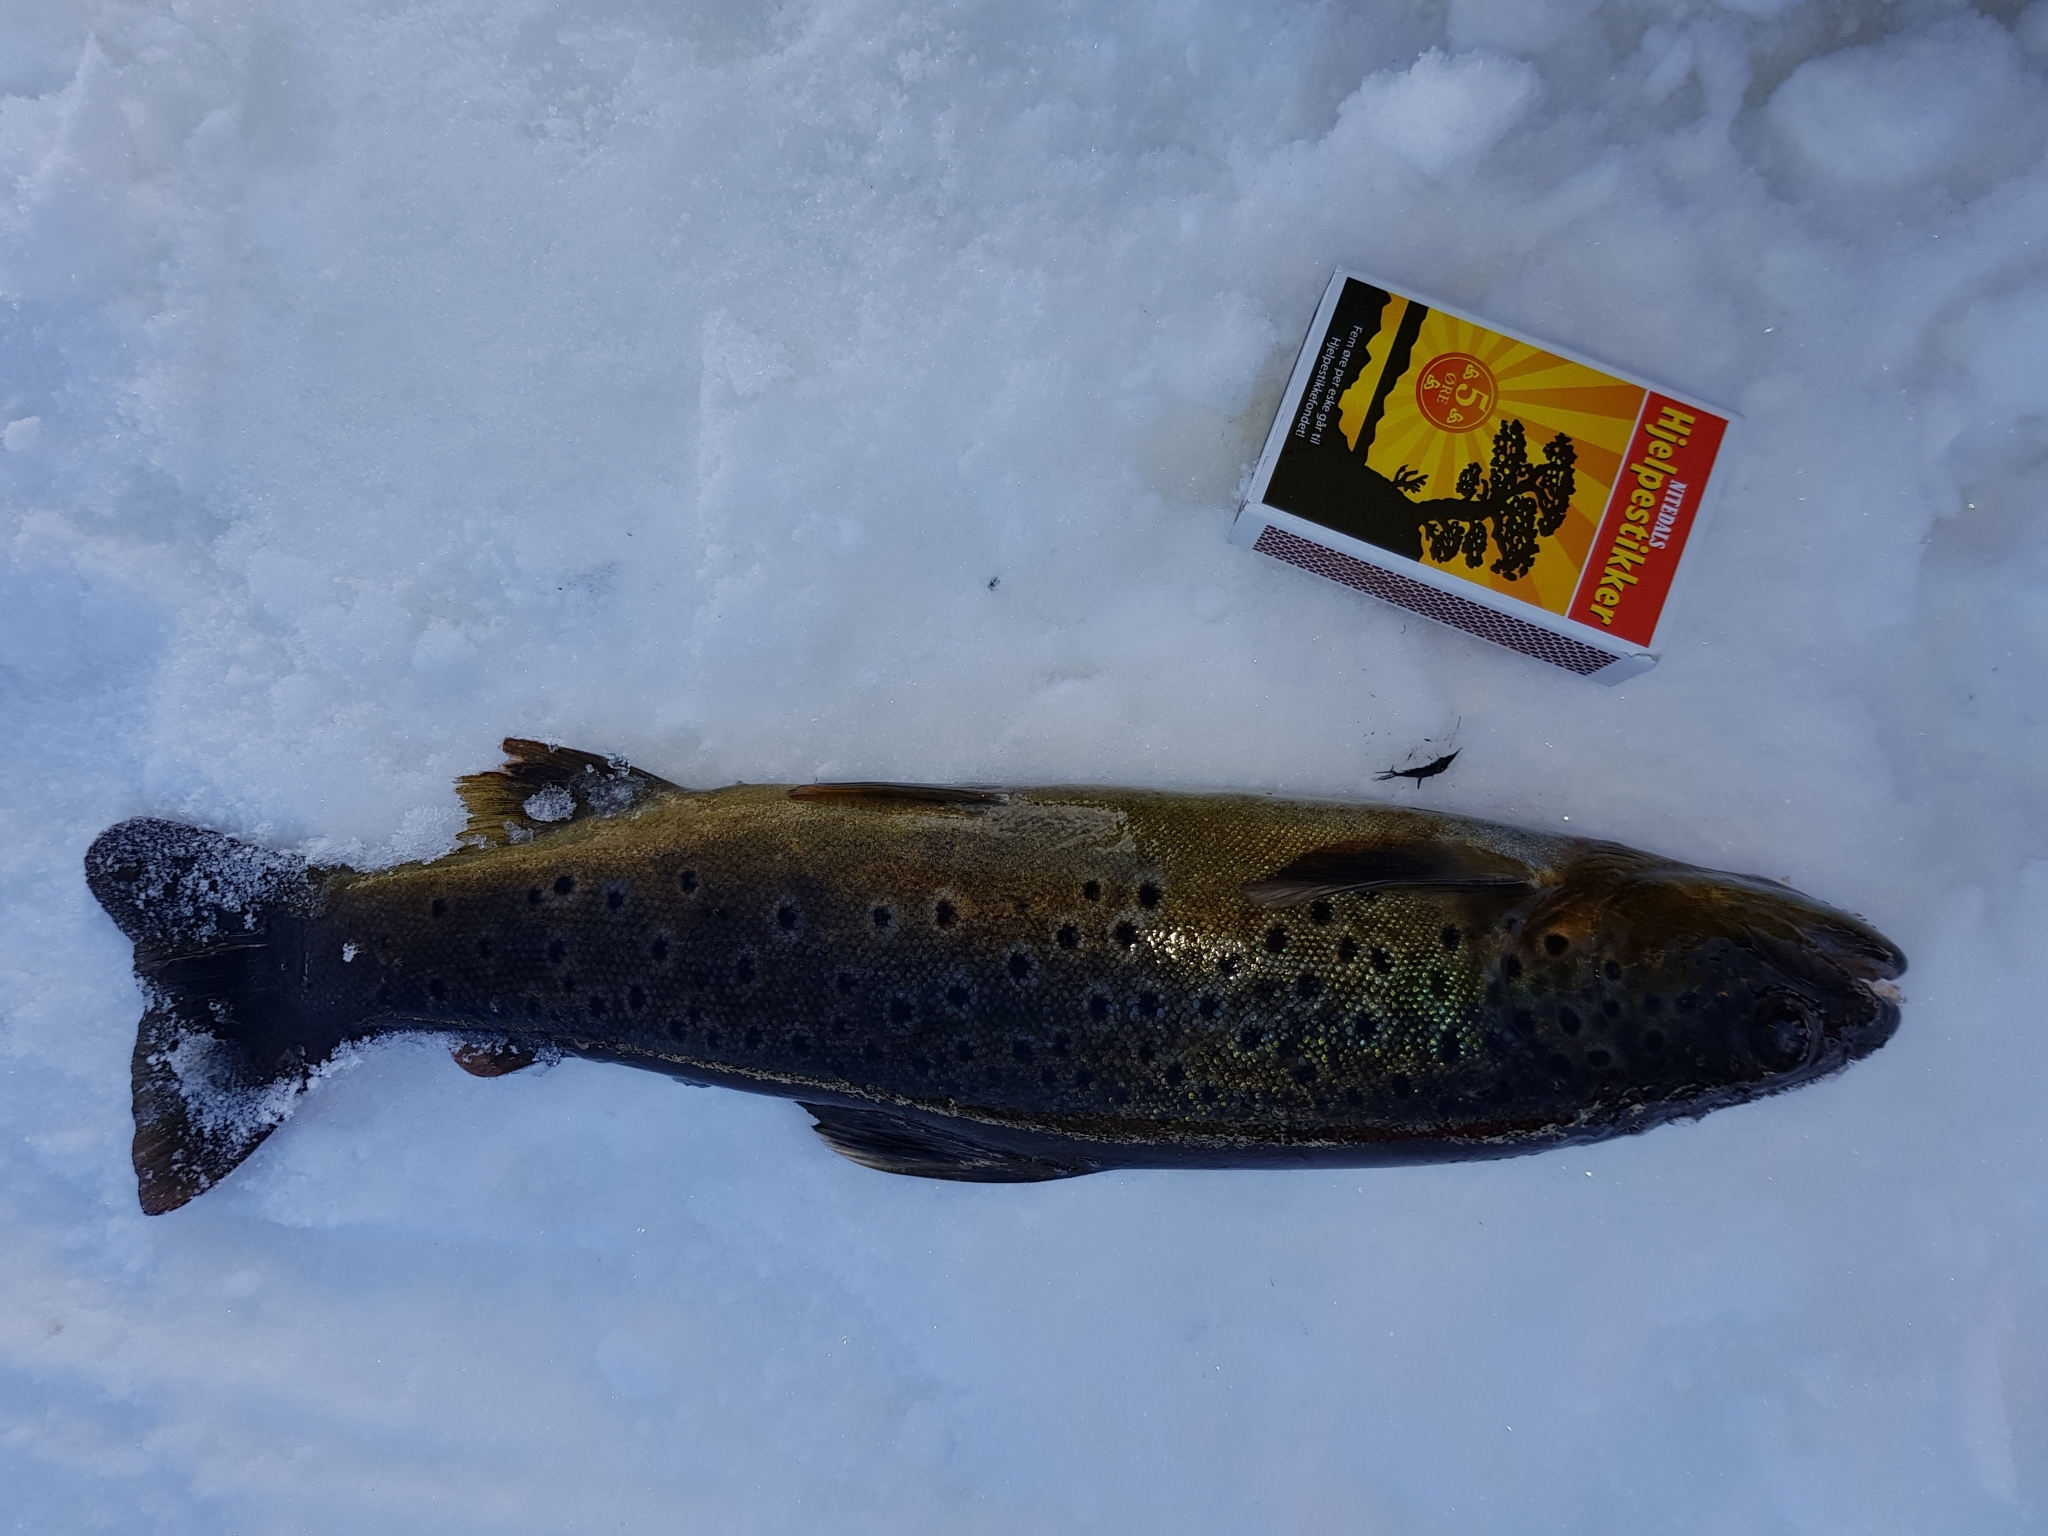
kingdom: Animalia
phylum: Chordata
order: Salmoniformes
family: Salmonidae
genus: Salmo
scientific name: Salmo trutta
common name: Brown trout
